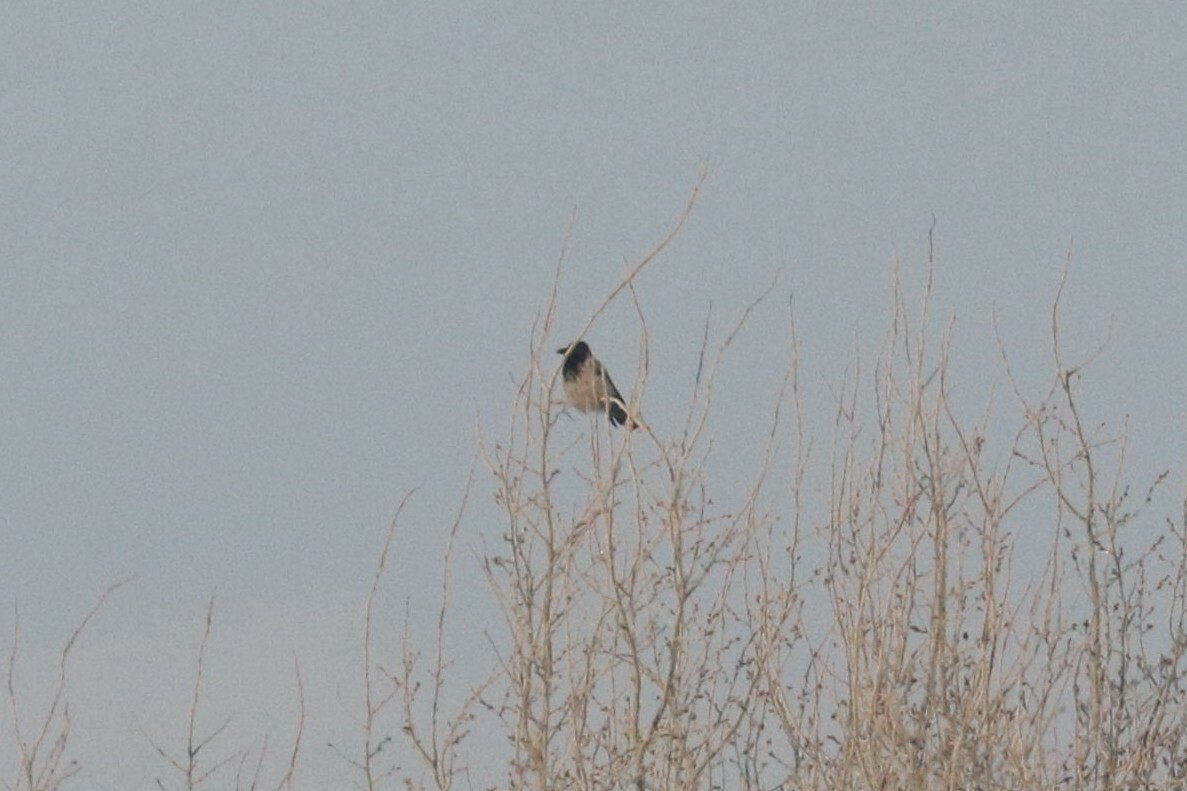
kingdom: Animalia
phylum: Chordata
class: Aves
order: Passeriformes
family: Corvidae
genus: Corvus
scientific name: Corvus cornix
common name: Hooded crow
